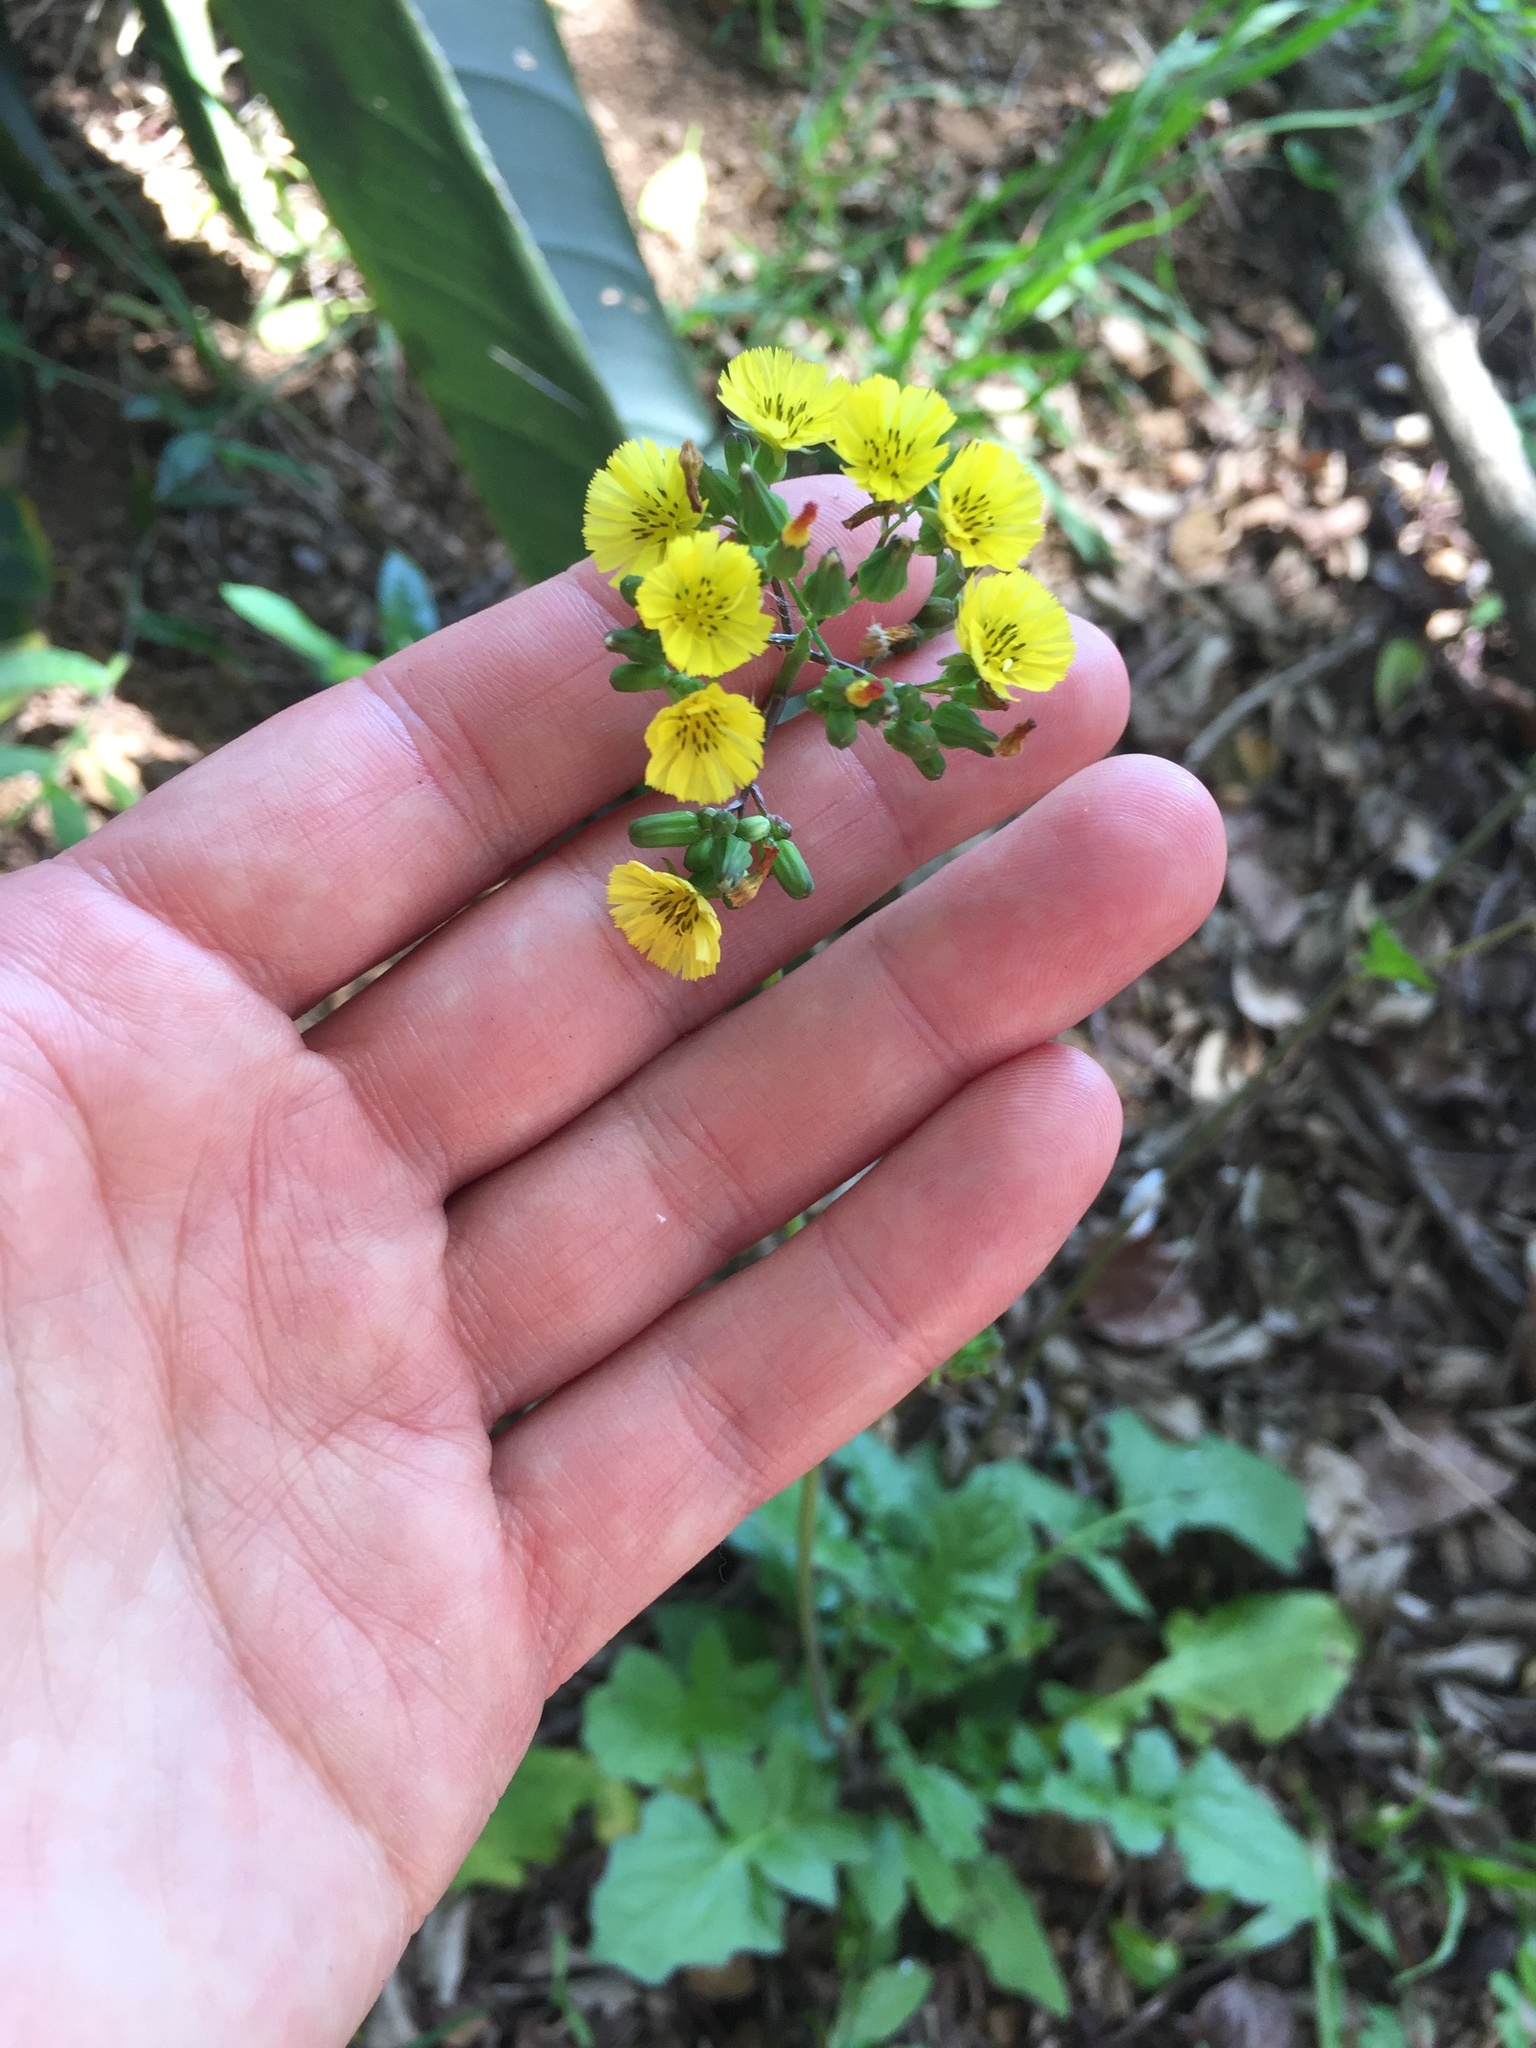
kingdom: Plantae
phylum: Tracheophyta
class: Magnoliopsida
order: Asterales
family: Asteraceae
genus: Youngia
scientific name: Youngia japonica
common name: Oriental false hawksbeard
